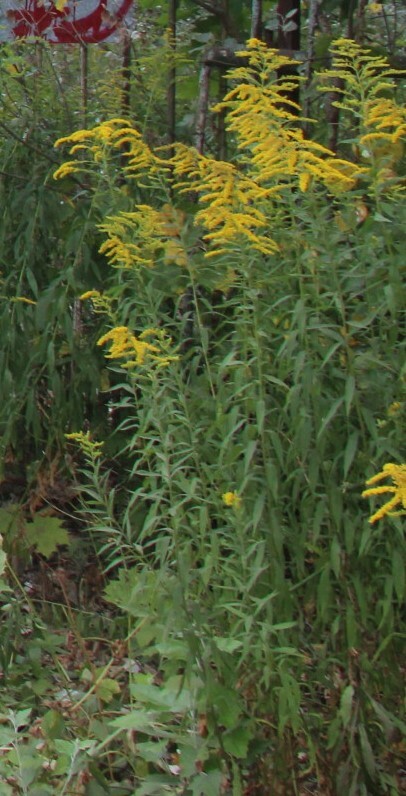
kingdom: Plantae
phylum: Tracheophyta
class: Magnoliopsida
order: Asterales
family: Asteraceae
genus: Solidago
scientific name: Solidago canadensis
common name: Canada goldenrod
